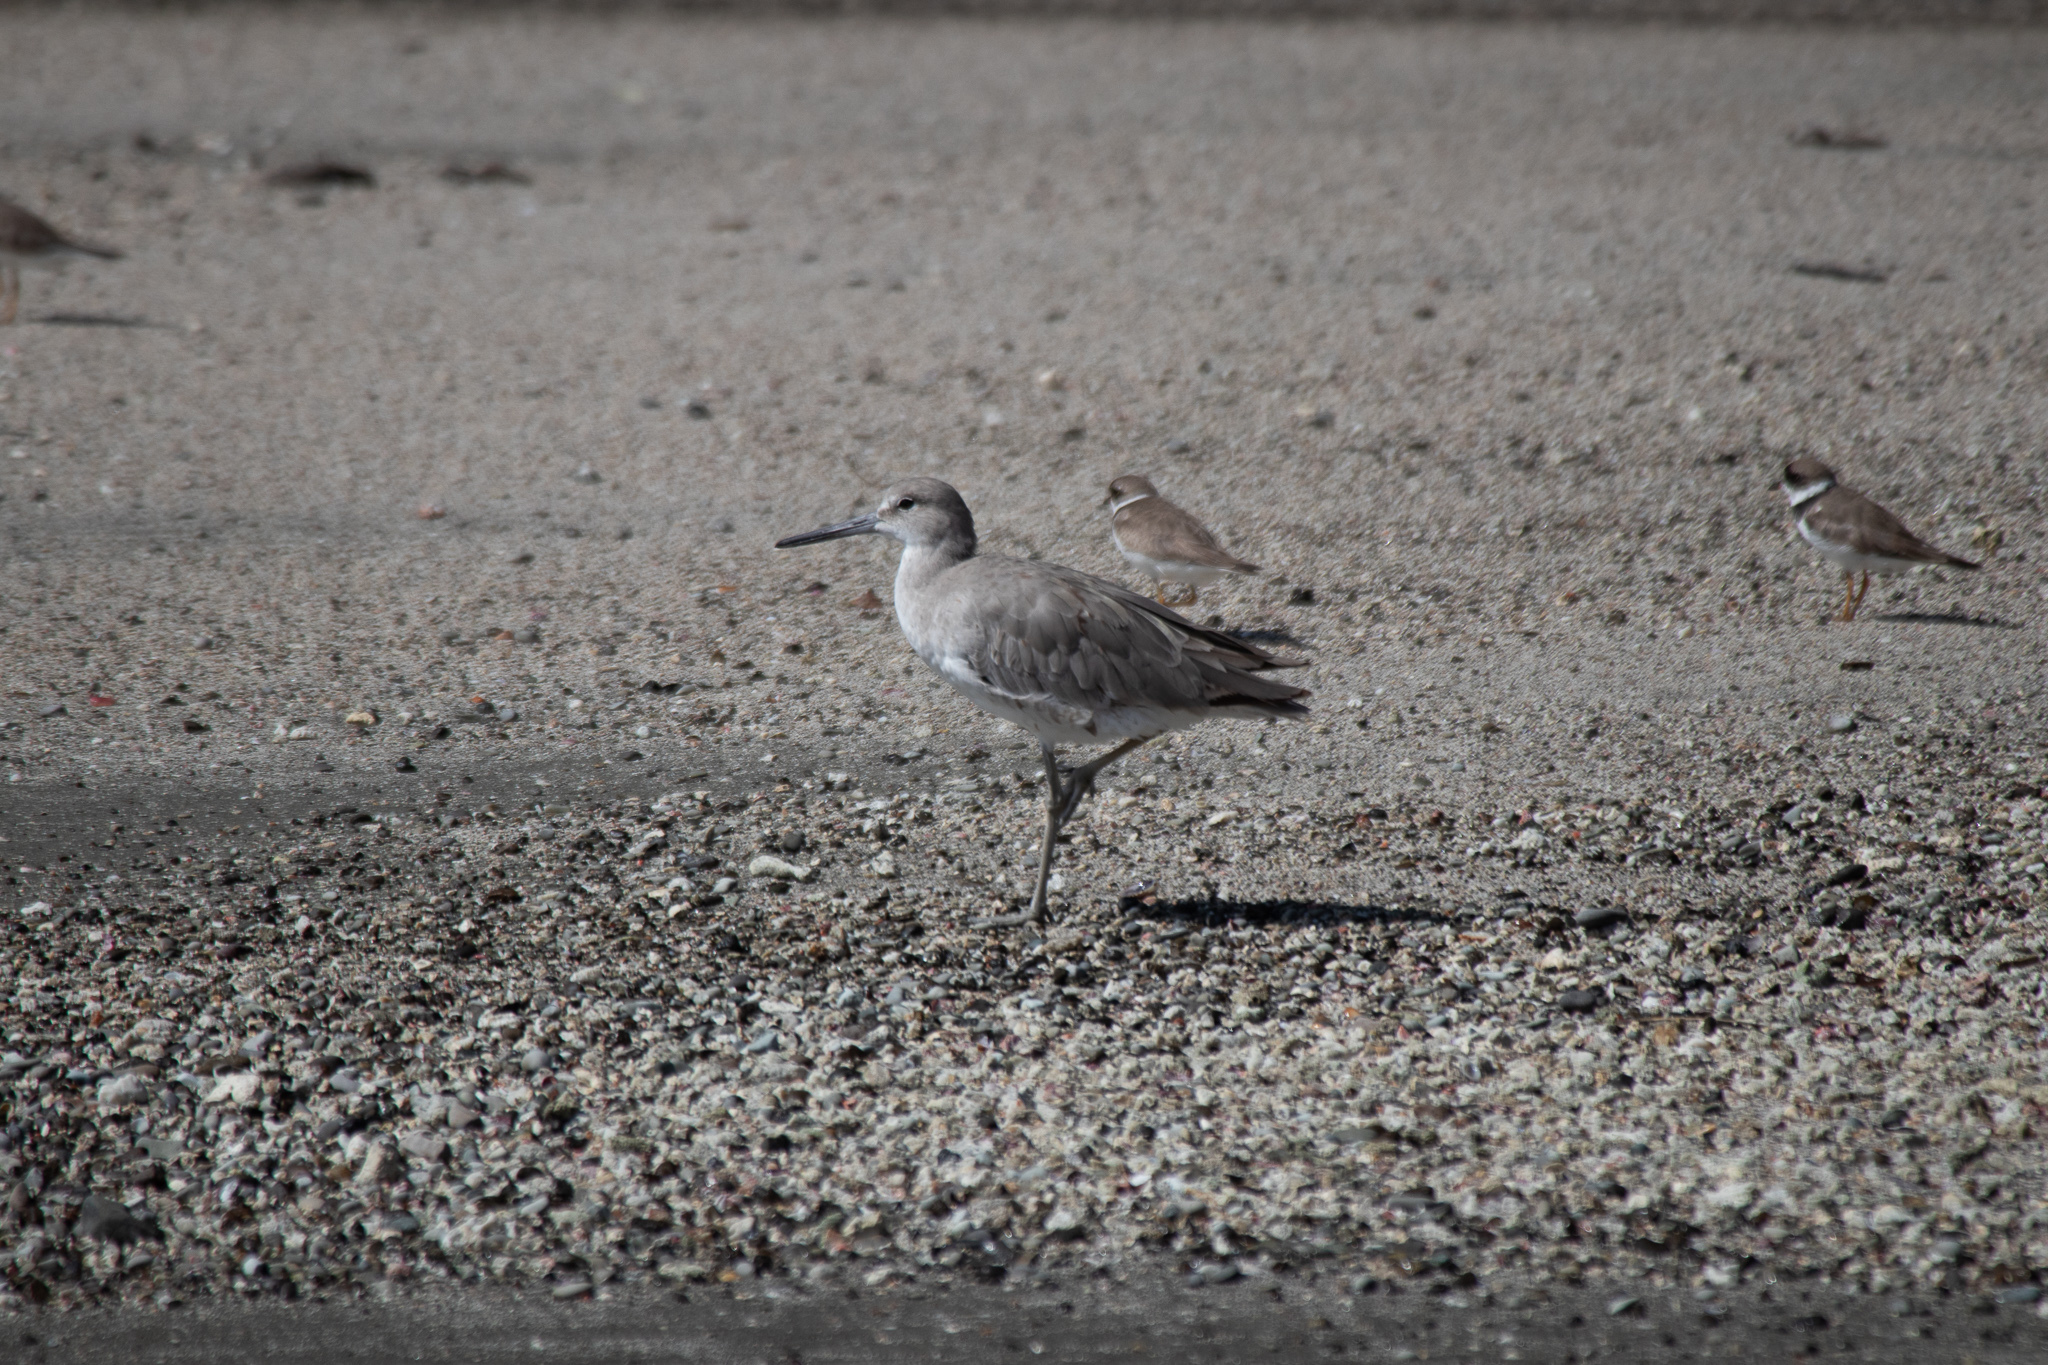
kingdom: Animalia
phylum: Chordata
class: Aves
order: Charadriiformes
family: Scolopacidae
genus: Tringa
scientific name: Tringa semipalmata
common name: Willet
